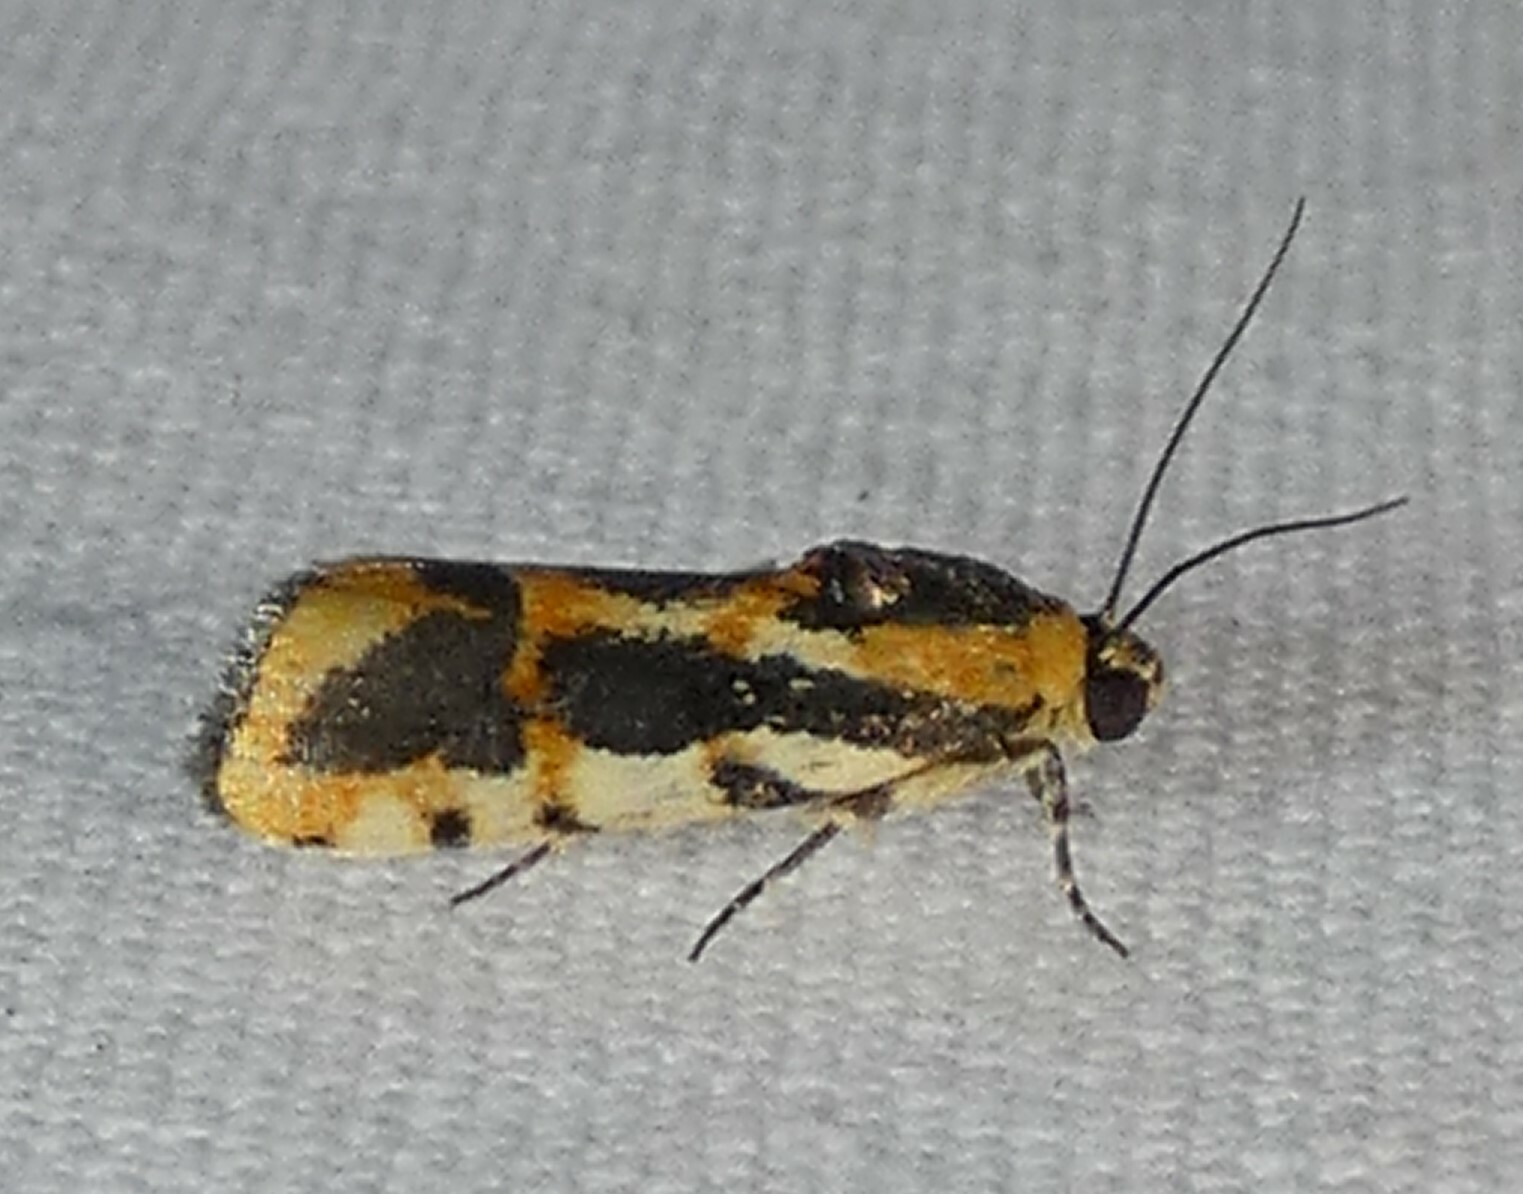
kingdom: Animalia
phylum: Arthropoda
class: Insecta
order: Lepidoptera
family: Noctuidae
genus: Acontia
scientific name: Acontia leo
